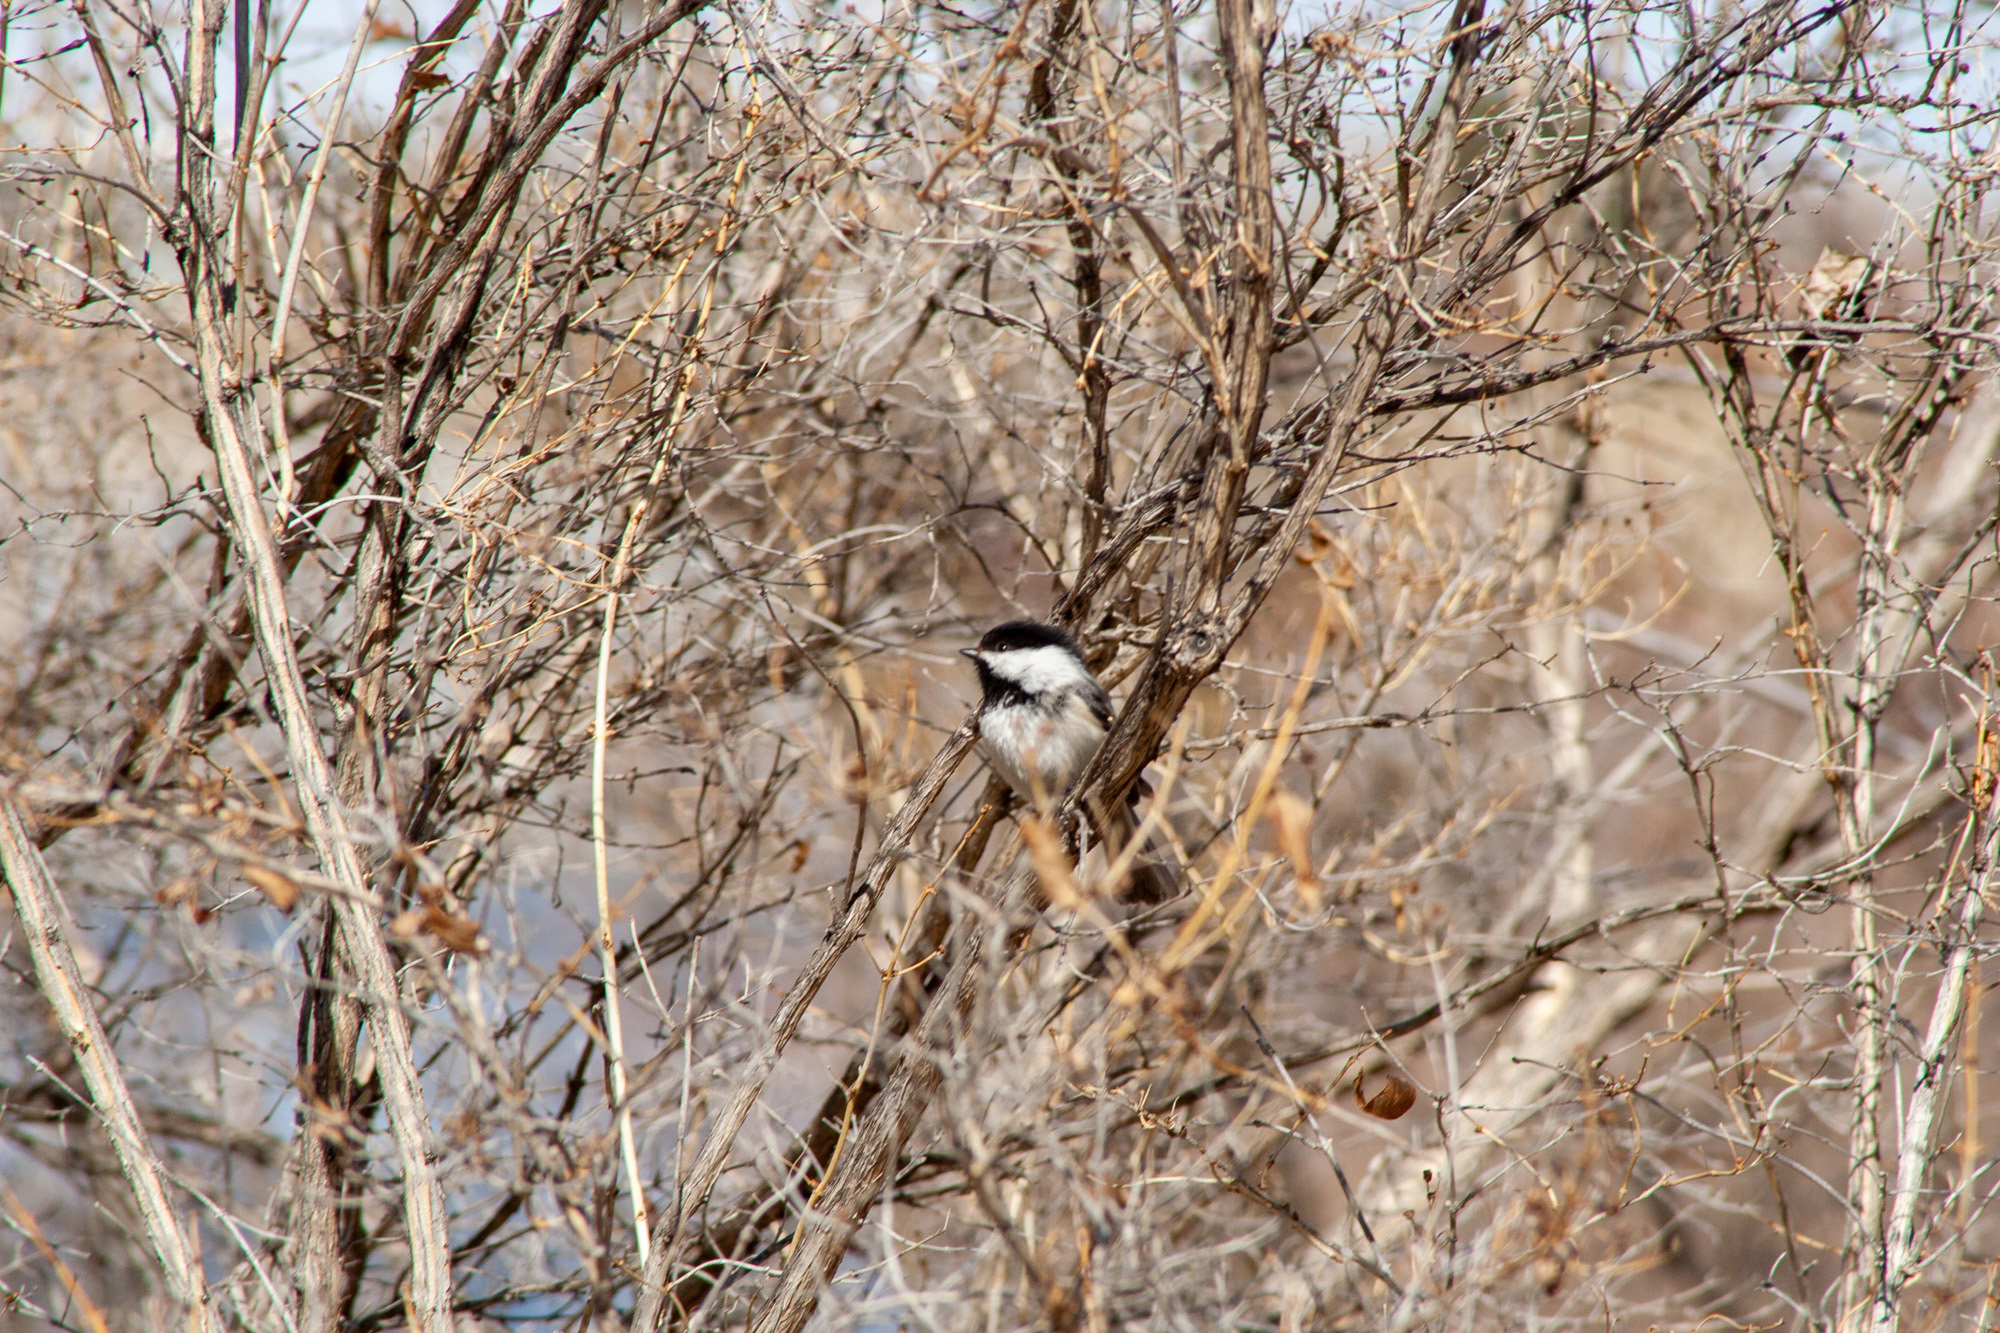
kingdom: Animalia
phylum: Chordata
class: Aves
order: Passeriformes
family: Paridae
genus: Poecile
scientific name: Poecile atricapillus
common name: Black-capped chickadee
